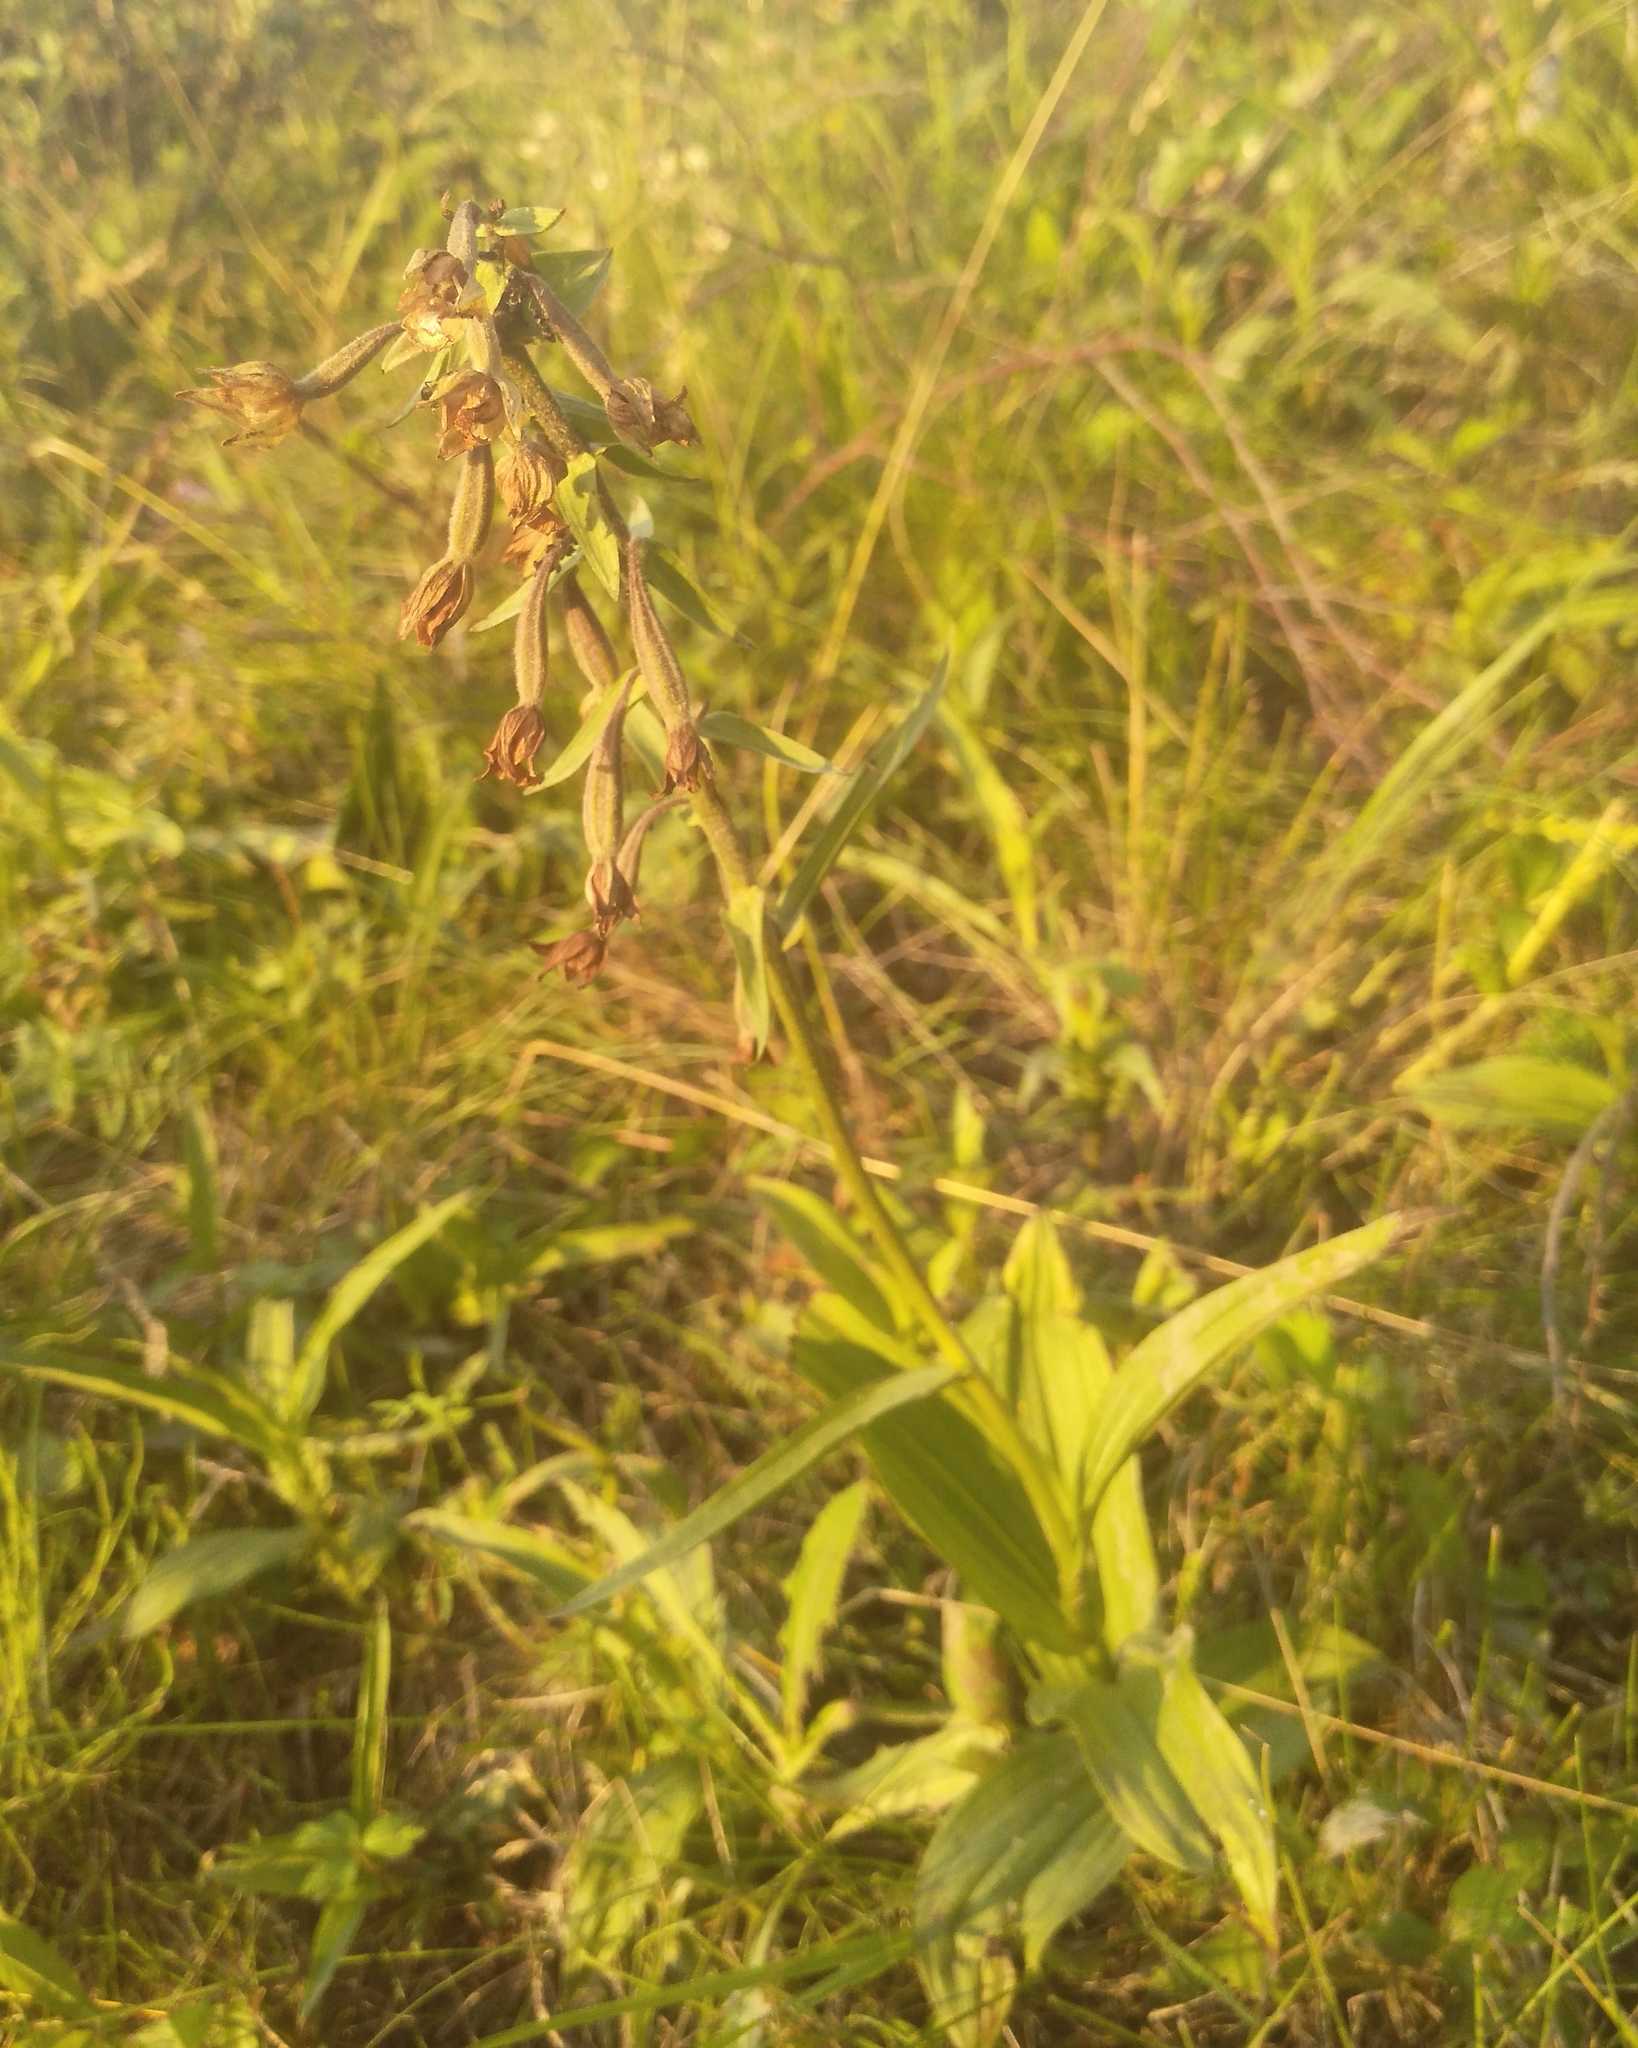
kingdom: Plantae
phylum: Tracheophyta
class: Liliopsida
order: Asparagales
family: Orchidaceae
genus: Epipactis
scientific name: Epipactis palustris
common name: Marsh helleborine
